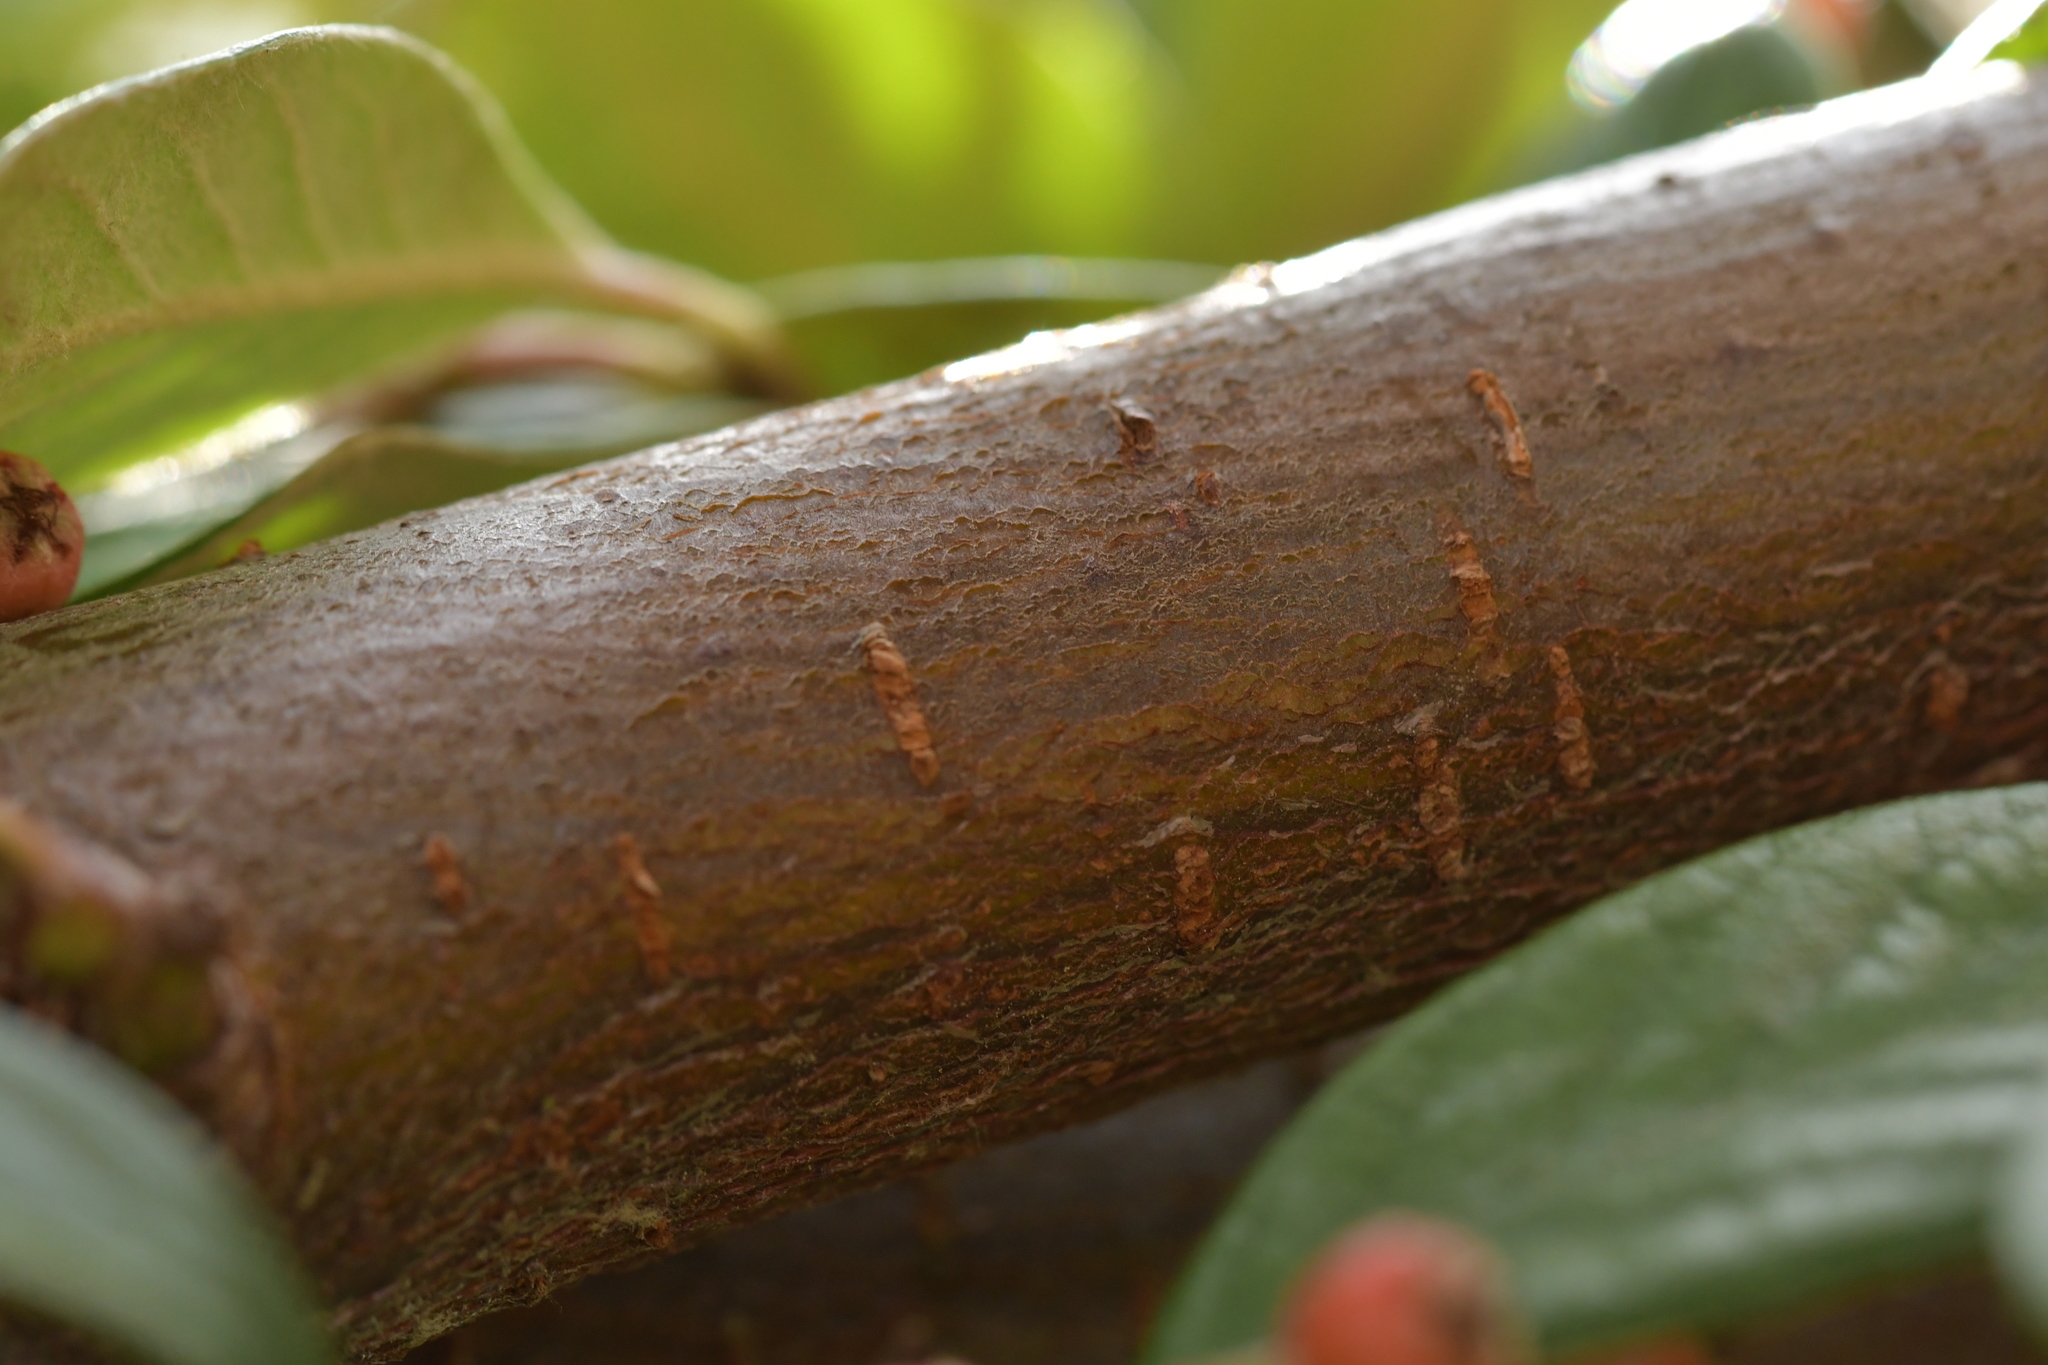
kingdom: Plantae
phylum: Tracheophyta
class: Magnoliopsida
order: Rosales
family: Rosaceae
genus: Cotoneaster
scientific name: Cotoneaster coriaceus
